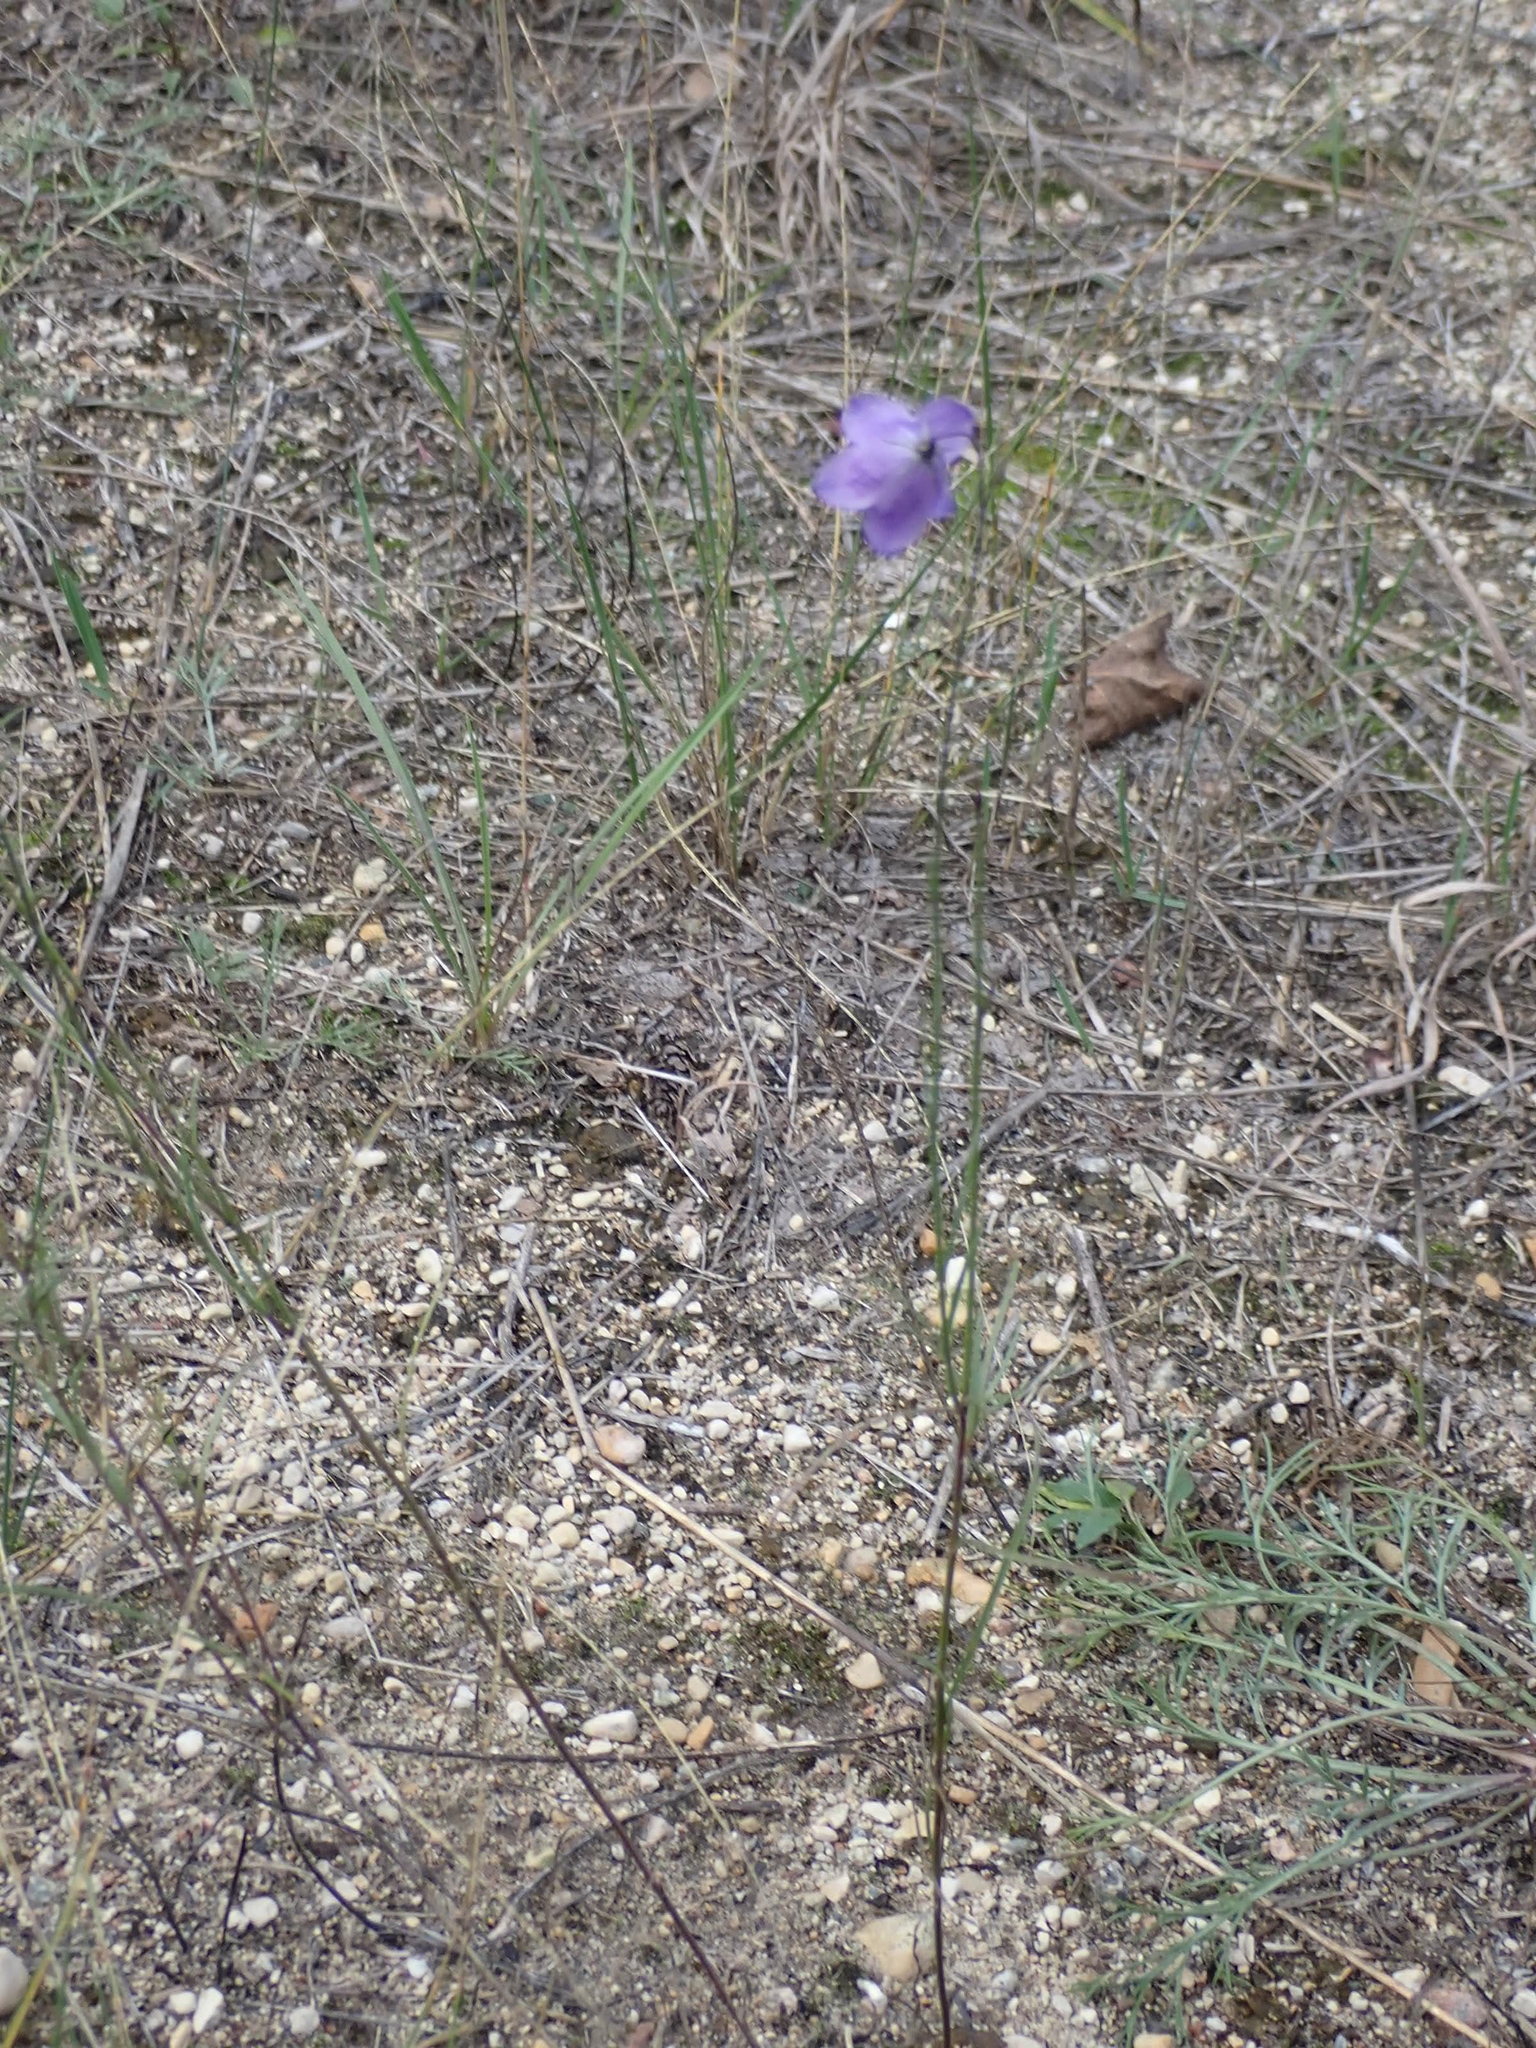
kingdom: Plantae
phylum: Tracheophyta
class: Magnoliopsida
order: Asterales
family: Campanulaceae
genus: Campanula
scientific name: Campanula petiolata
